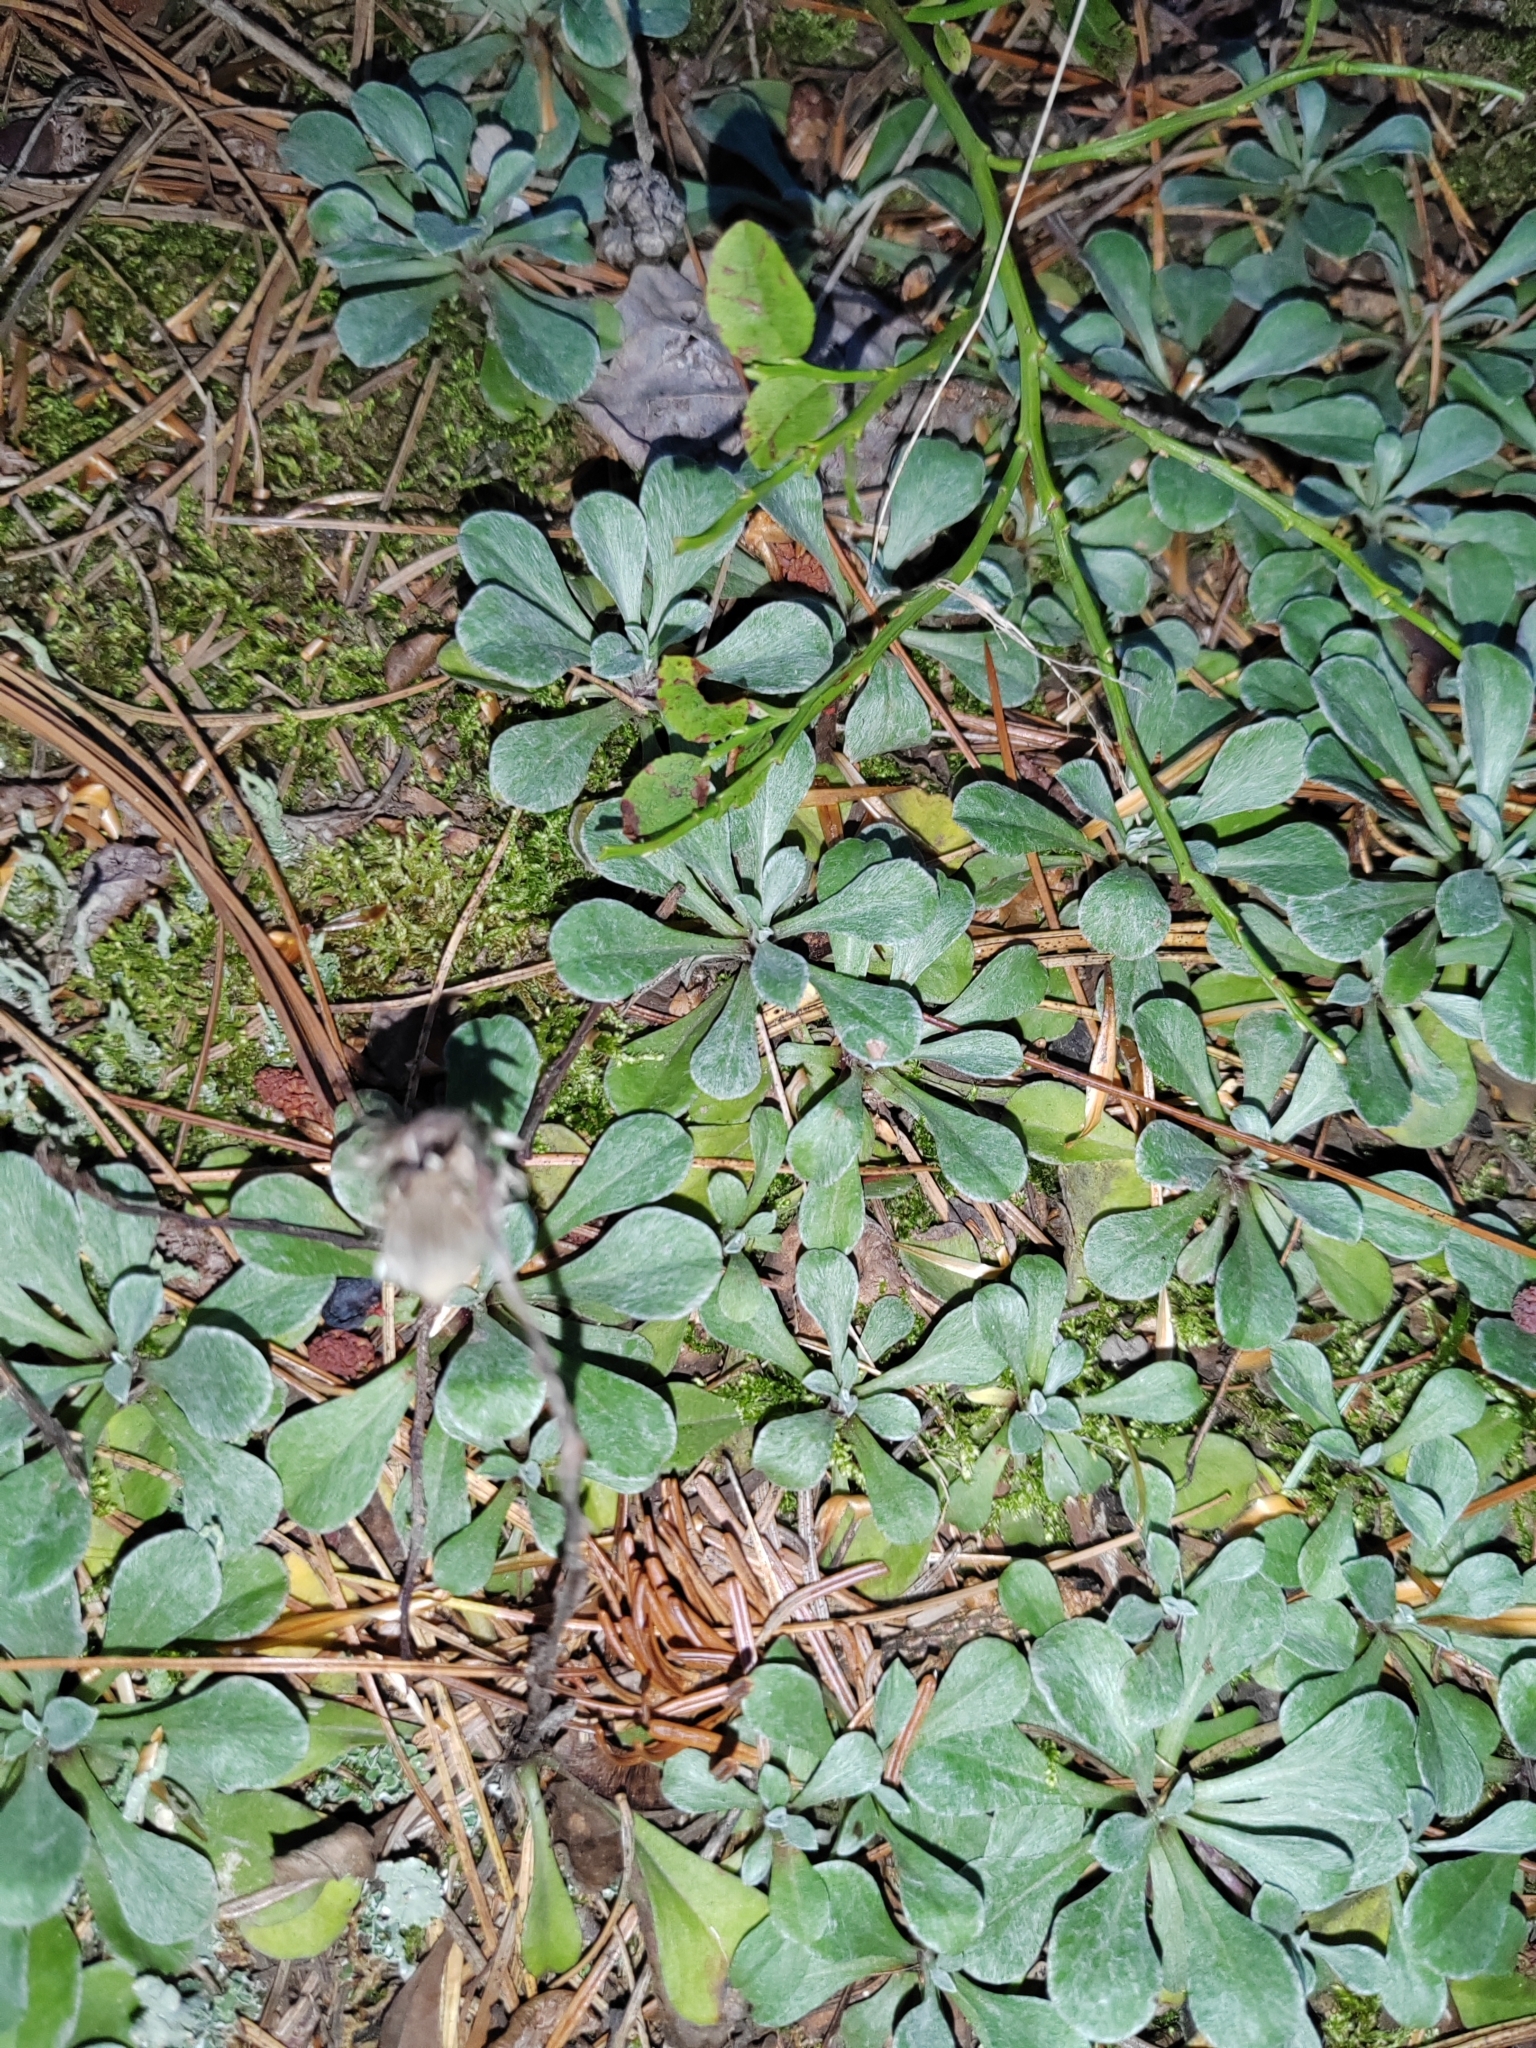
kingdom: Plantae
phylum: Tracheophyta
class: Magnoliopsida
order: Asterales
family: Asteraceae
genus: Antennaria
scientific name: Antennaria dioica
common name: Mountain everlasting
